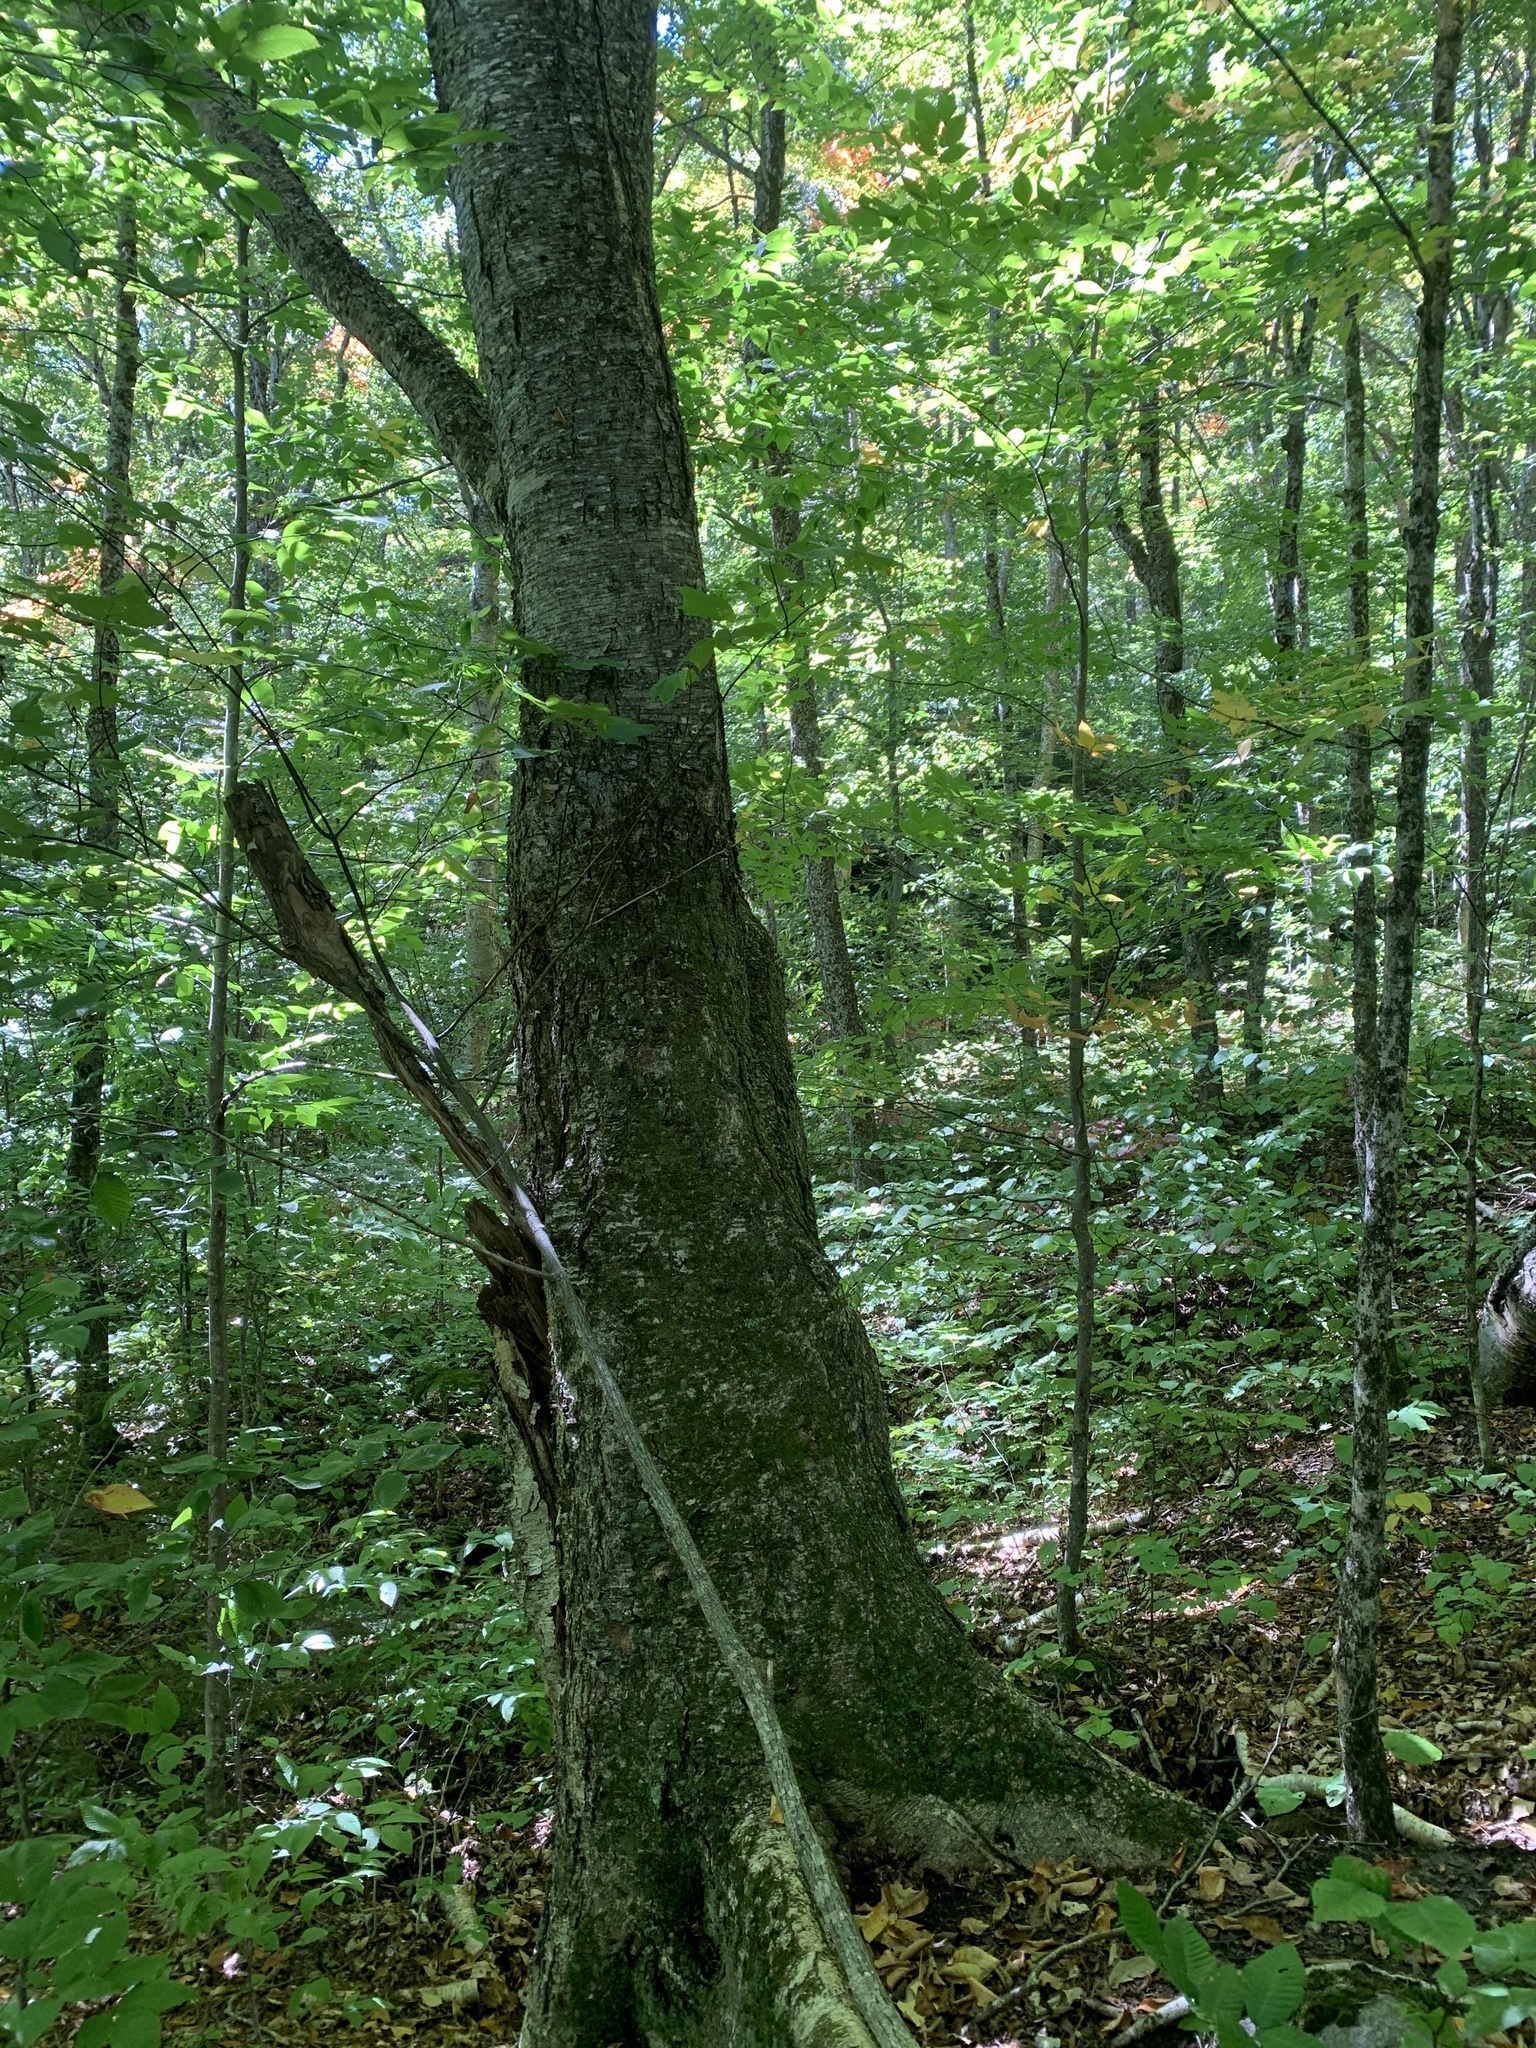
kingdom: Plantae
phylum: Tracheophyta
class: Magnoliopsida
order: Fagales
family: Betulaceae
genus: Betula
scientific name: Betula alleghaniensis
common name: Yellow birch
